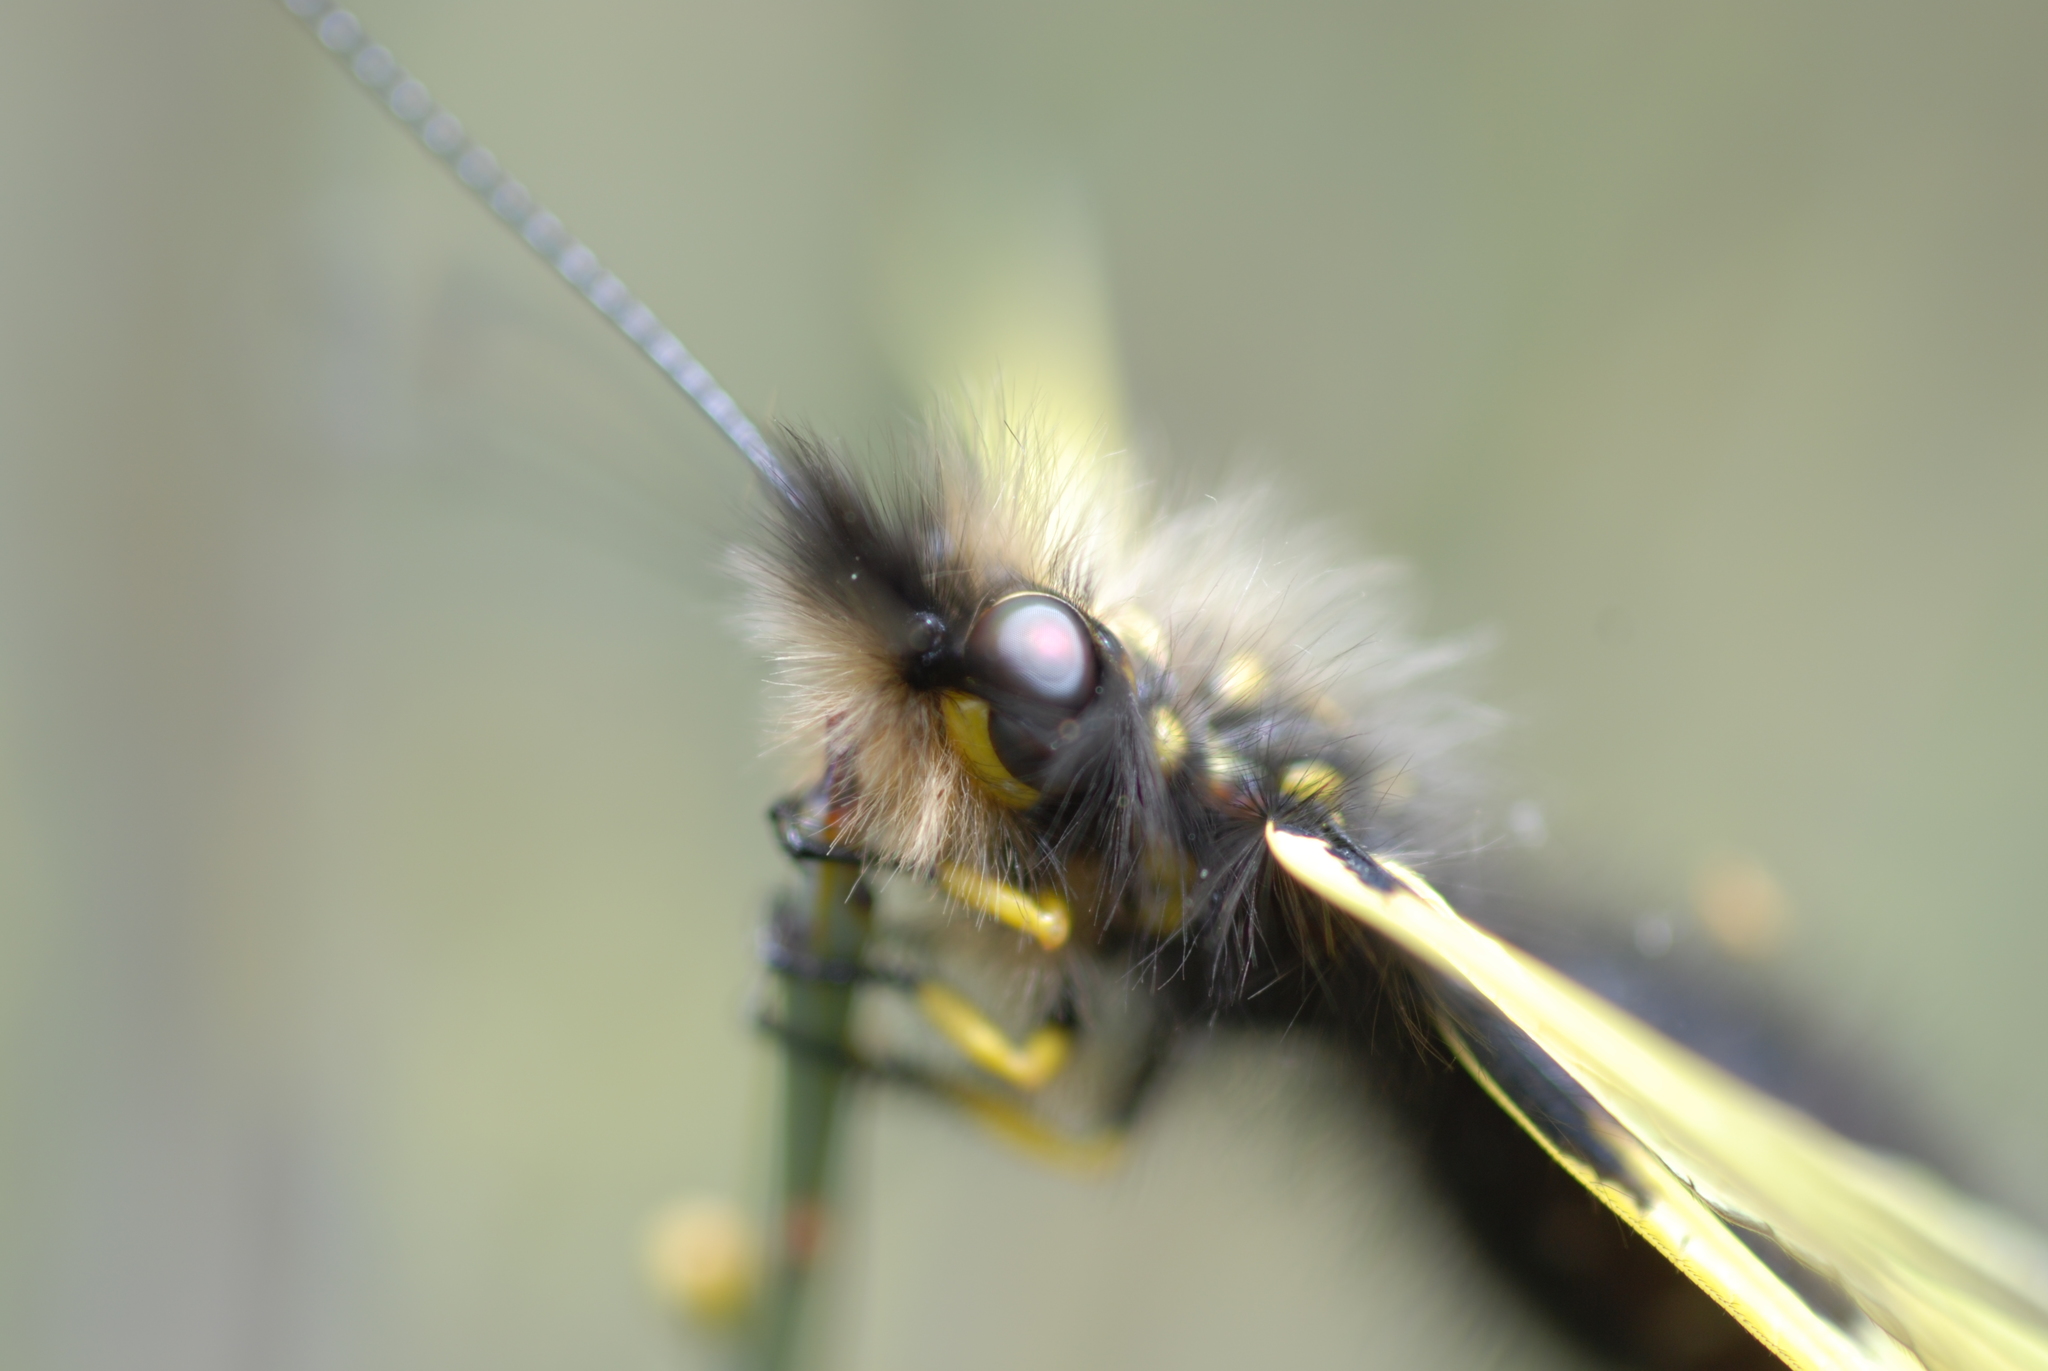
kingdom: Animalia
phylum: Arthropoda
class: Insecta
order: Neuroptera
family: Ascalaphidae
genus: Libelloides
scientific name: Libelloides coccajus
